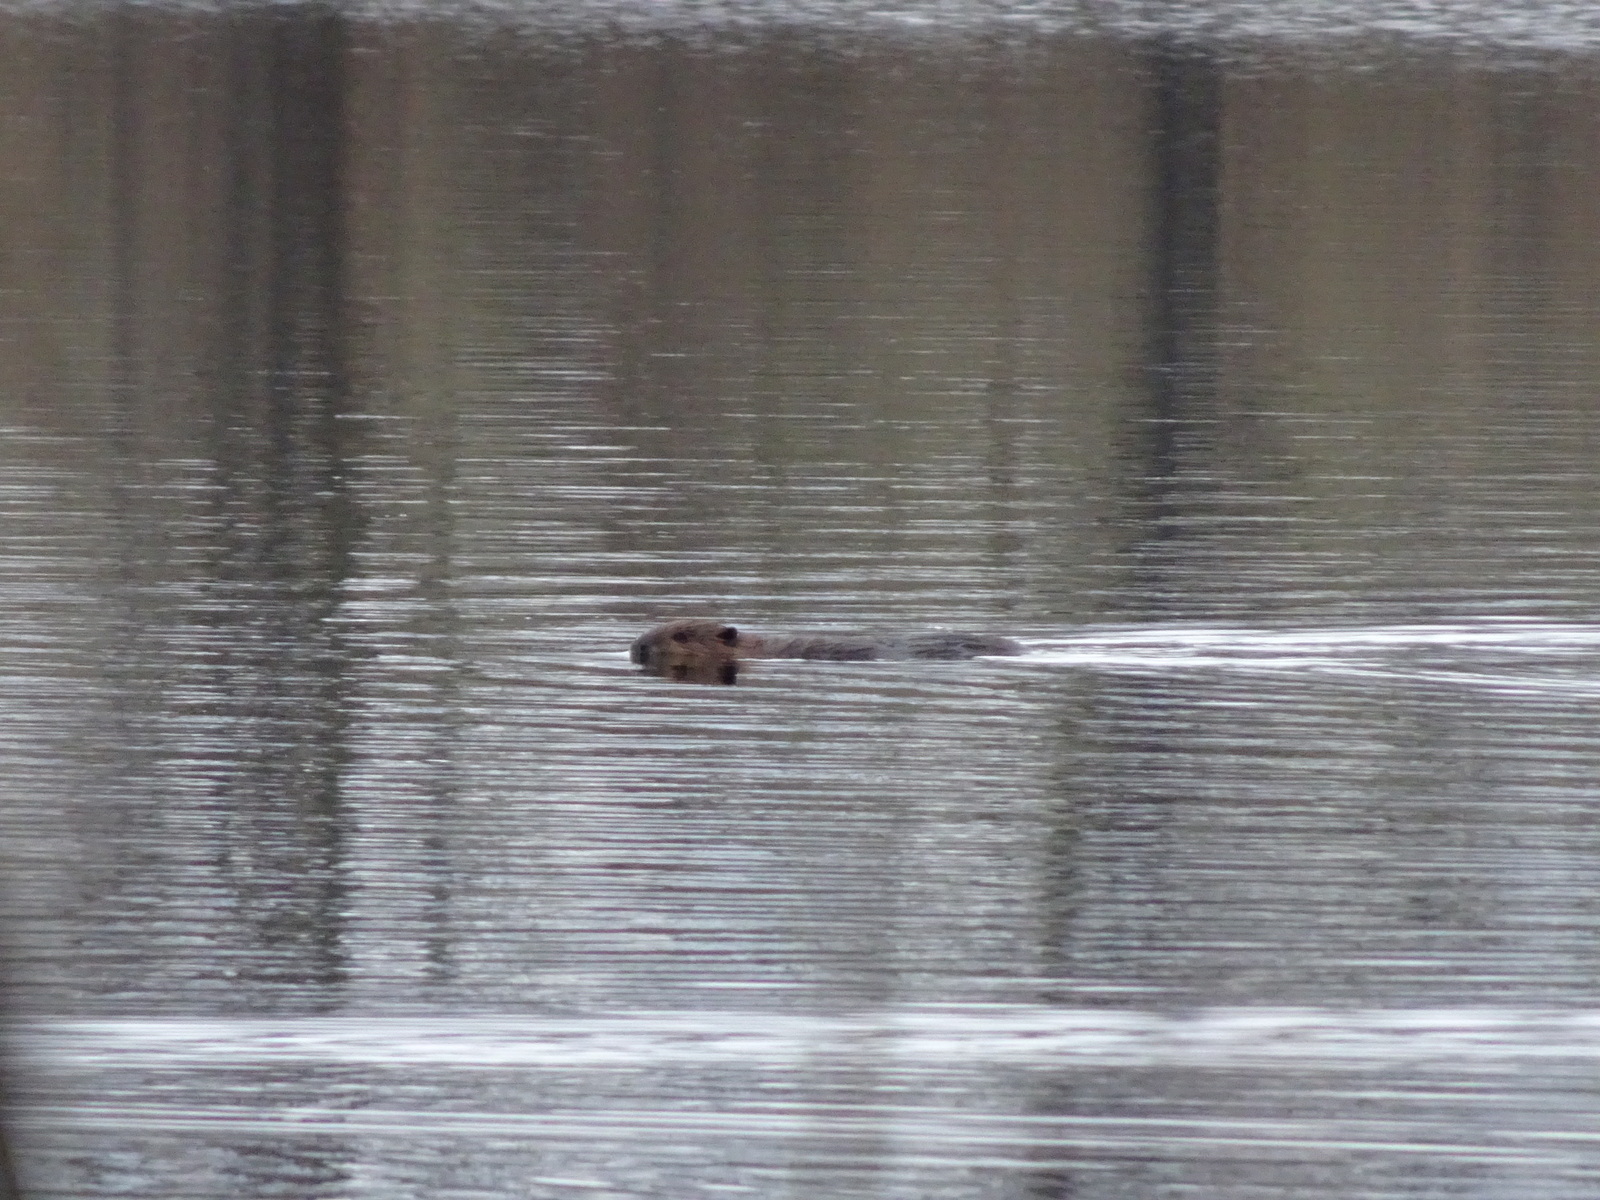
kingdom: Animalia
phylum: Chordata
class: Mammalia
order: Rodentia
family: Castoridae
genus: Castor
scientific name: Castor canadensis
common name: American beaver
